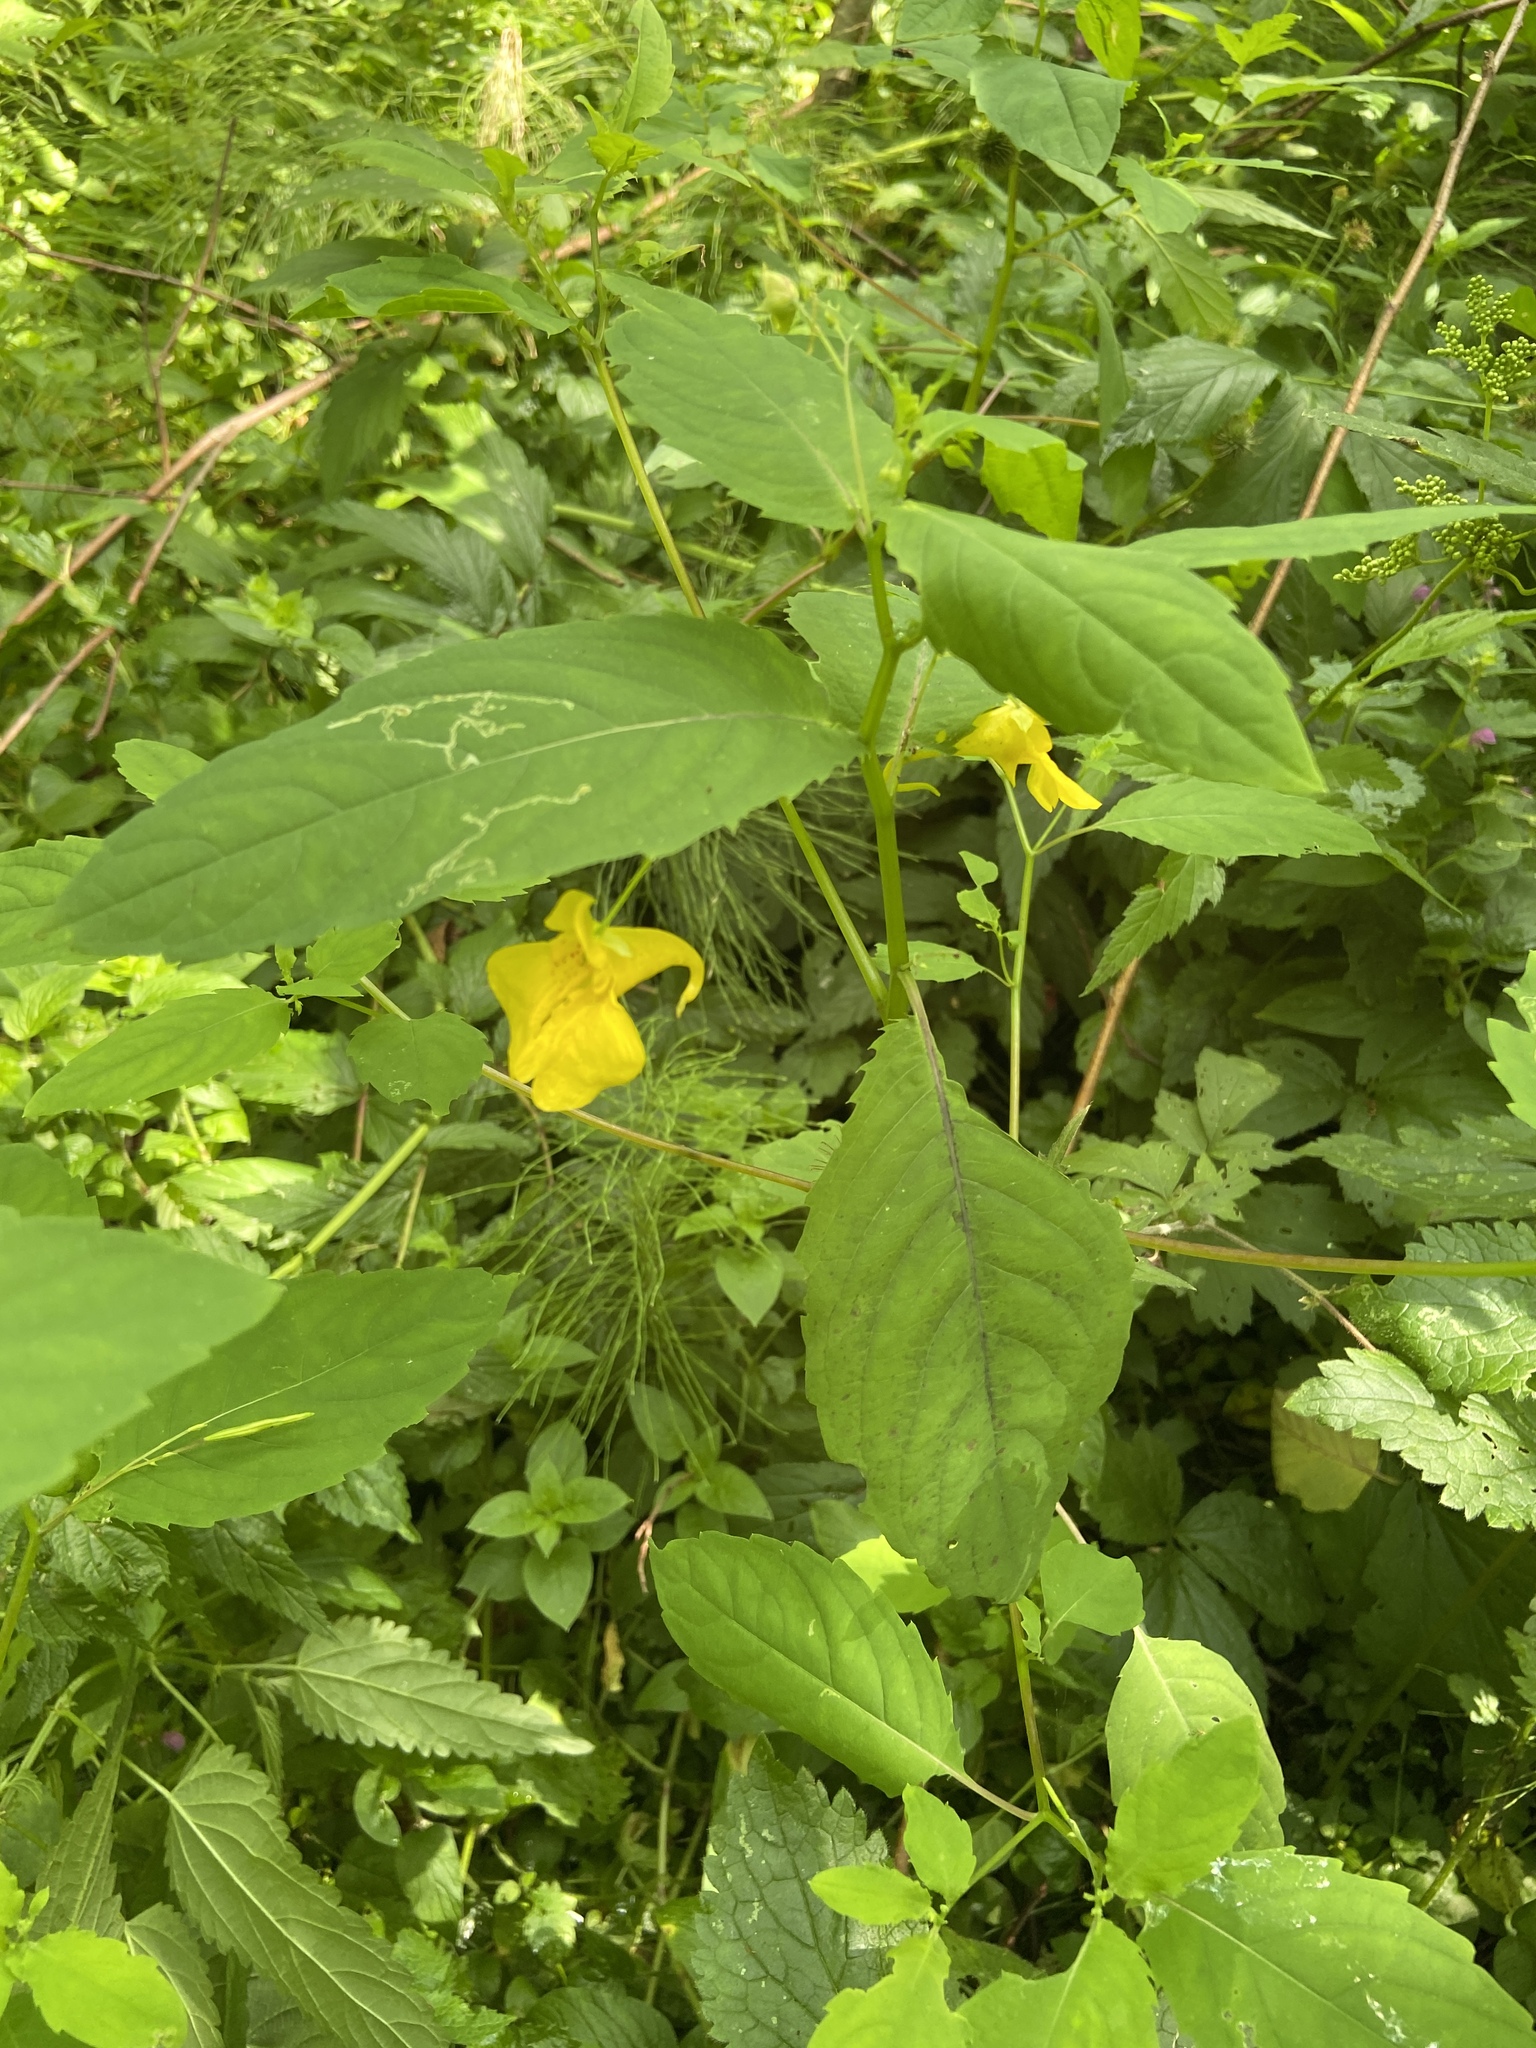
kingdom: Plantae
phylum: Tracheophyta
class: Magnoliopsida
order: Ericales
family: Balsaminaceae
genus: Impatiens
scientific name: Impatiens noli-tangere
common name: Touch-me-not balsam
